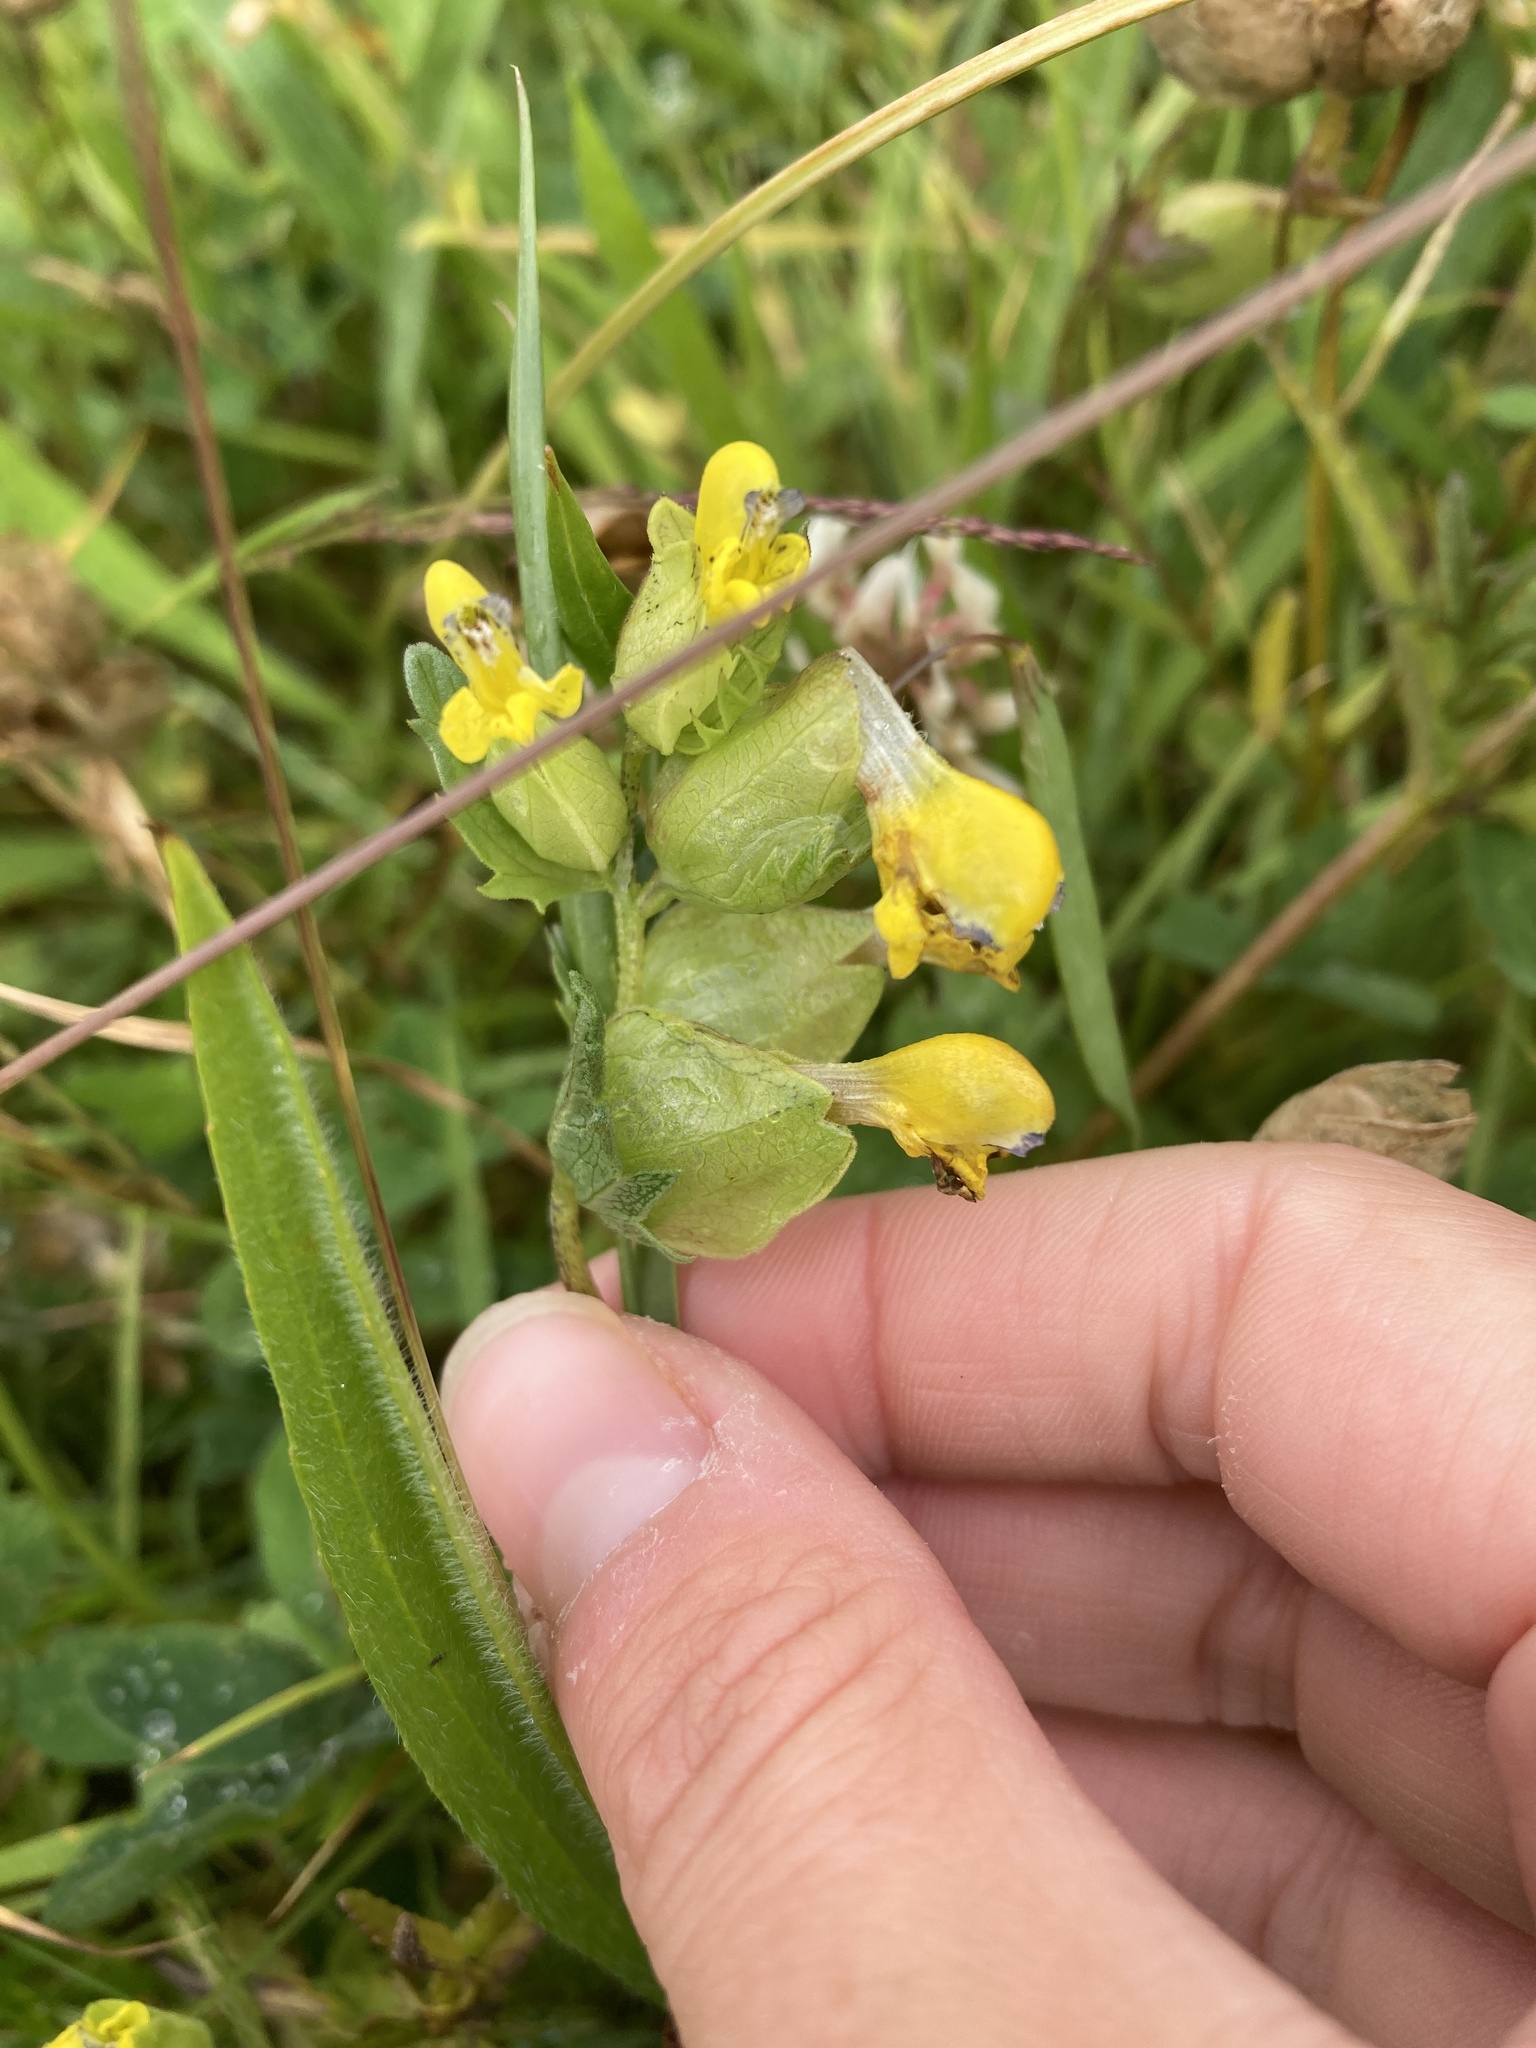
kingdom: Plantae
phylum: Tracheophyta
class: Magnoliopsida
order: Lamiales
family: Orobanchaceae
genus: Rhinanthus
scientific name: Rhinanthus minor
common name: Yellow-rattle
